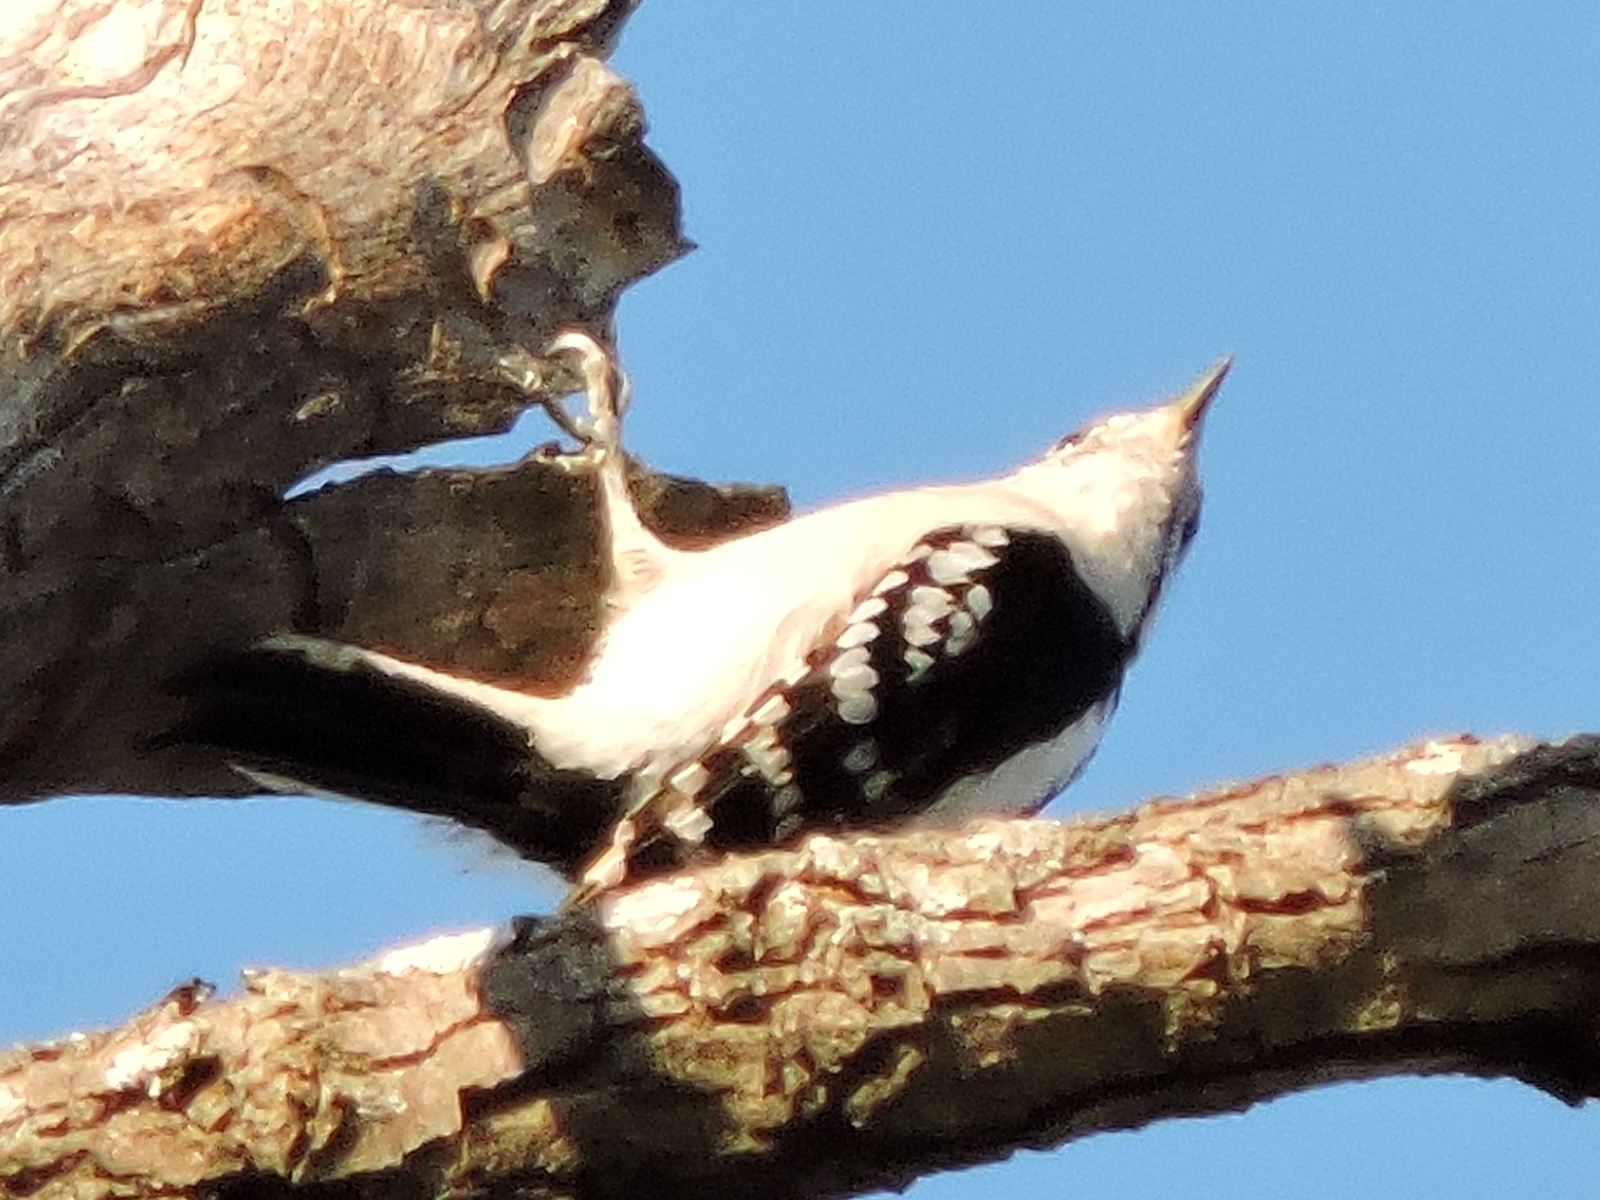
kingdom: Animalia
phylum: Chordata
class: Aves
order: Piciformes
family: Picidae
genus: Dryobates
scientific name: Dryobates pubescens
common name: Downy woodpecker
